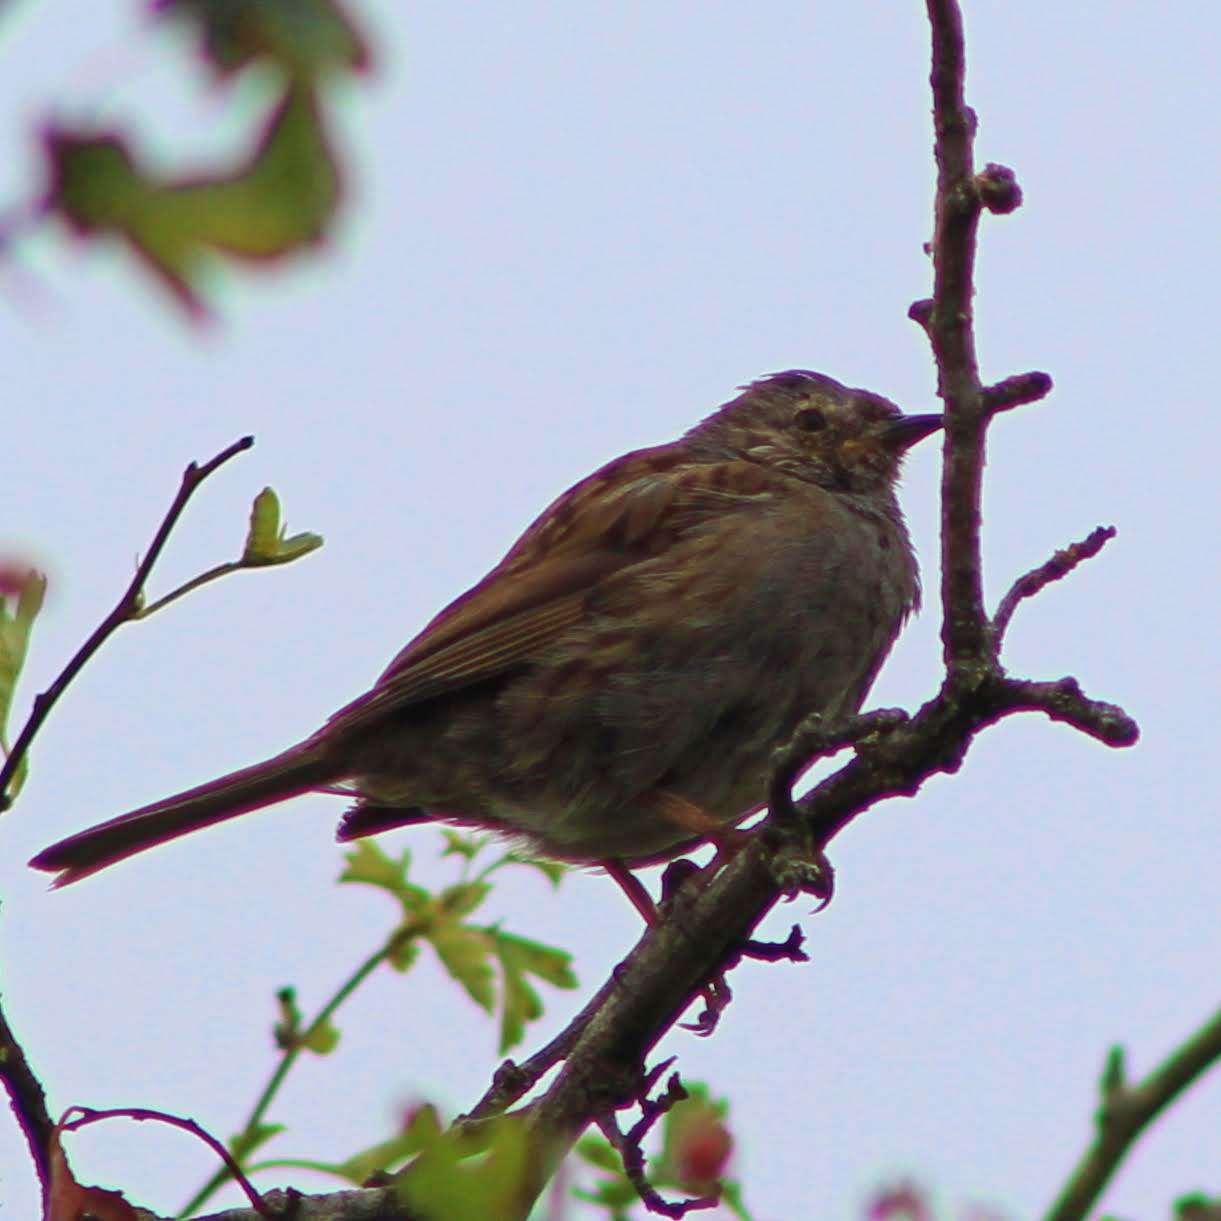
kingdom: Animalia
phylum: Chordata
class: Aves
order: Passeriformes
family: Prunellidae
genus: Prunella
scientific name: Prunella modularis
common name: Dunnock
